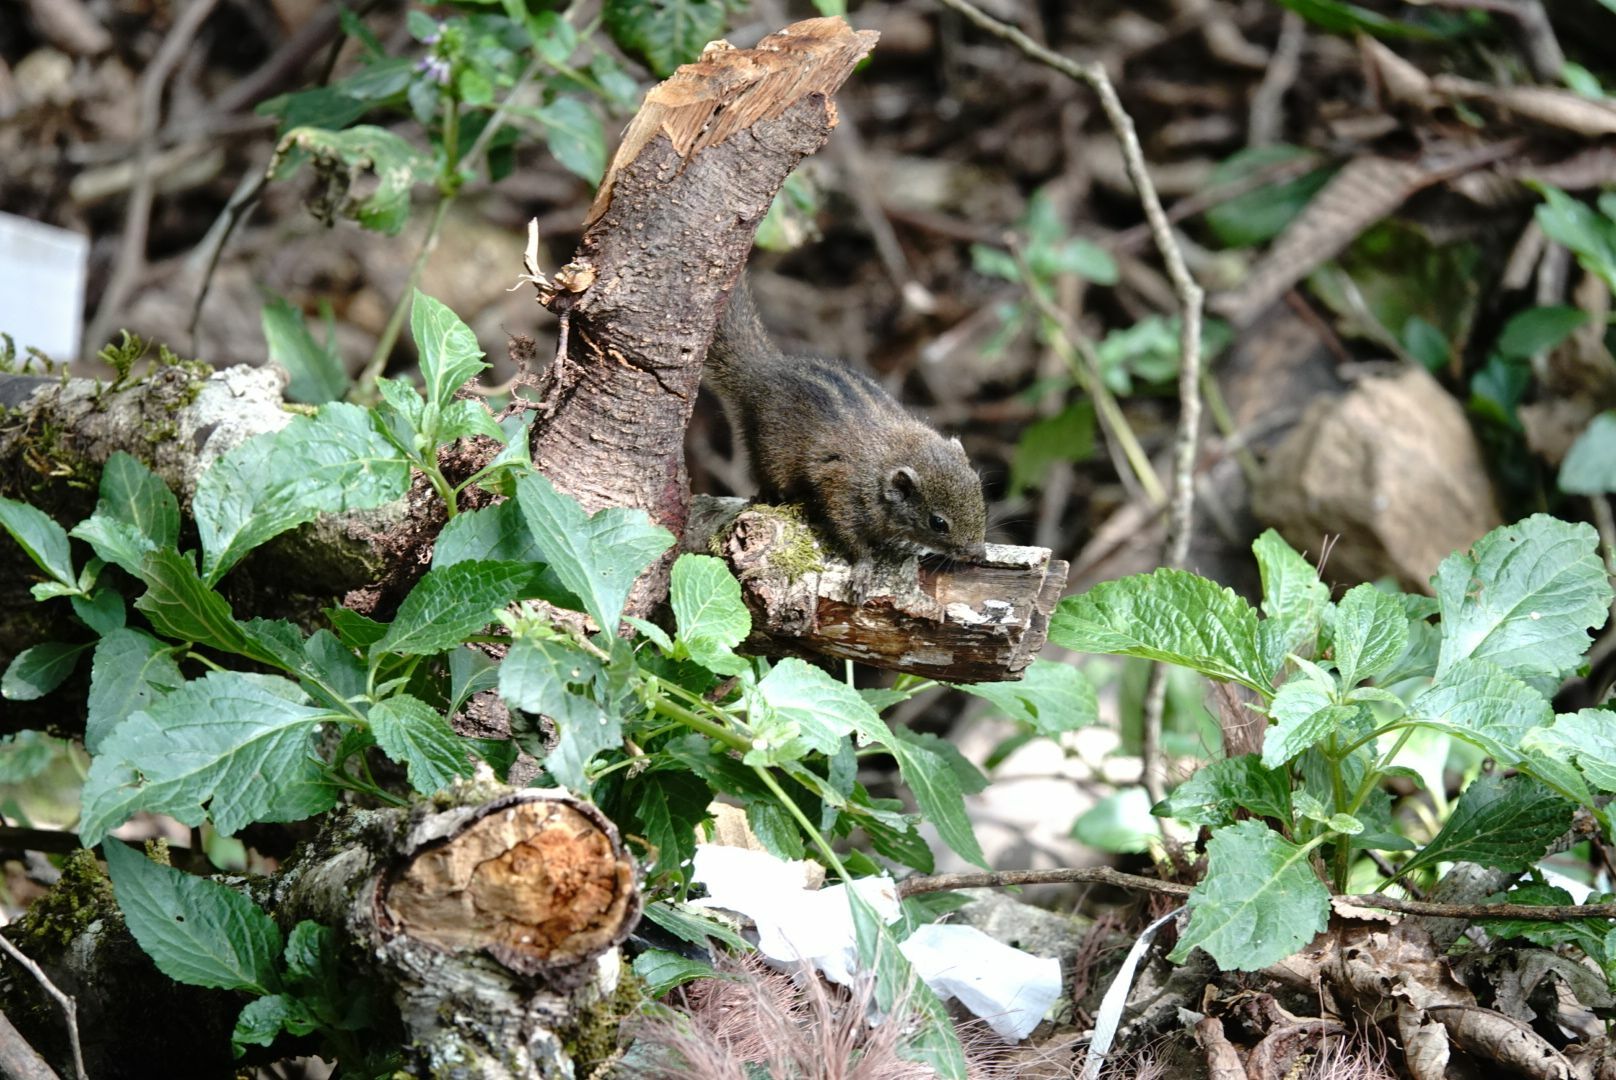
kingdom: Animalia
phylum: Chordata
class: Mammalia
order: Rodentia
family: Sciuridae
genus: Funambulus
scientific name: Funambulus sublineatus
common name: Dusky palm squirrel
